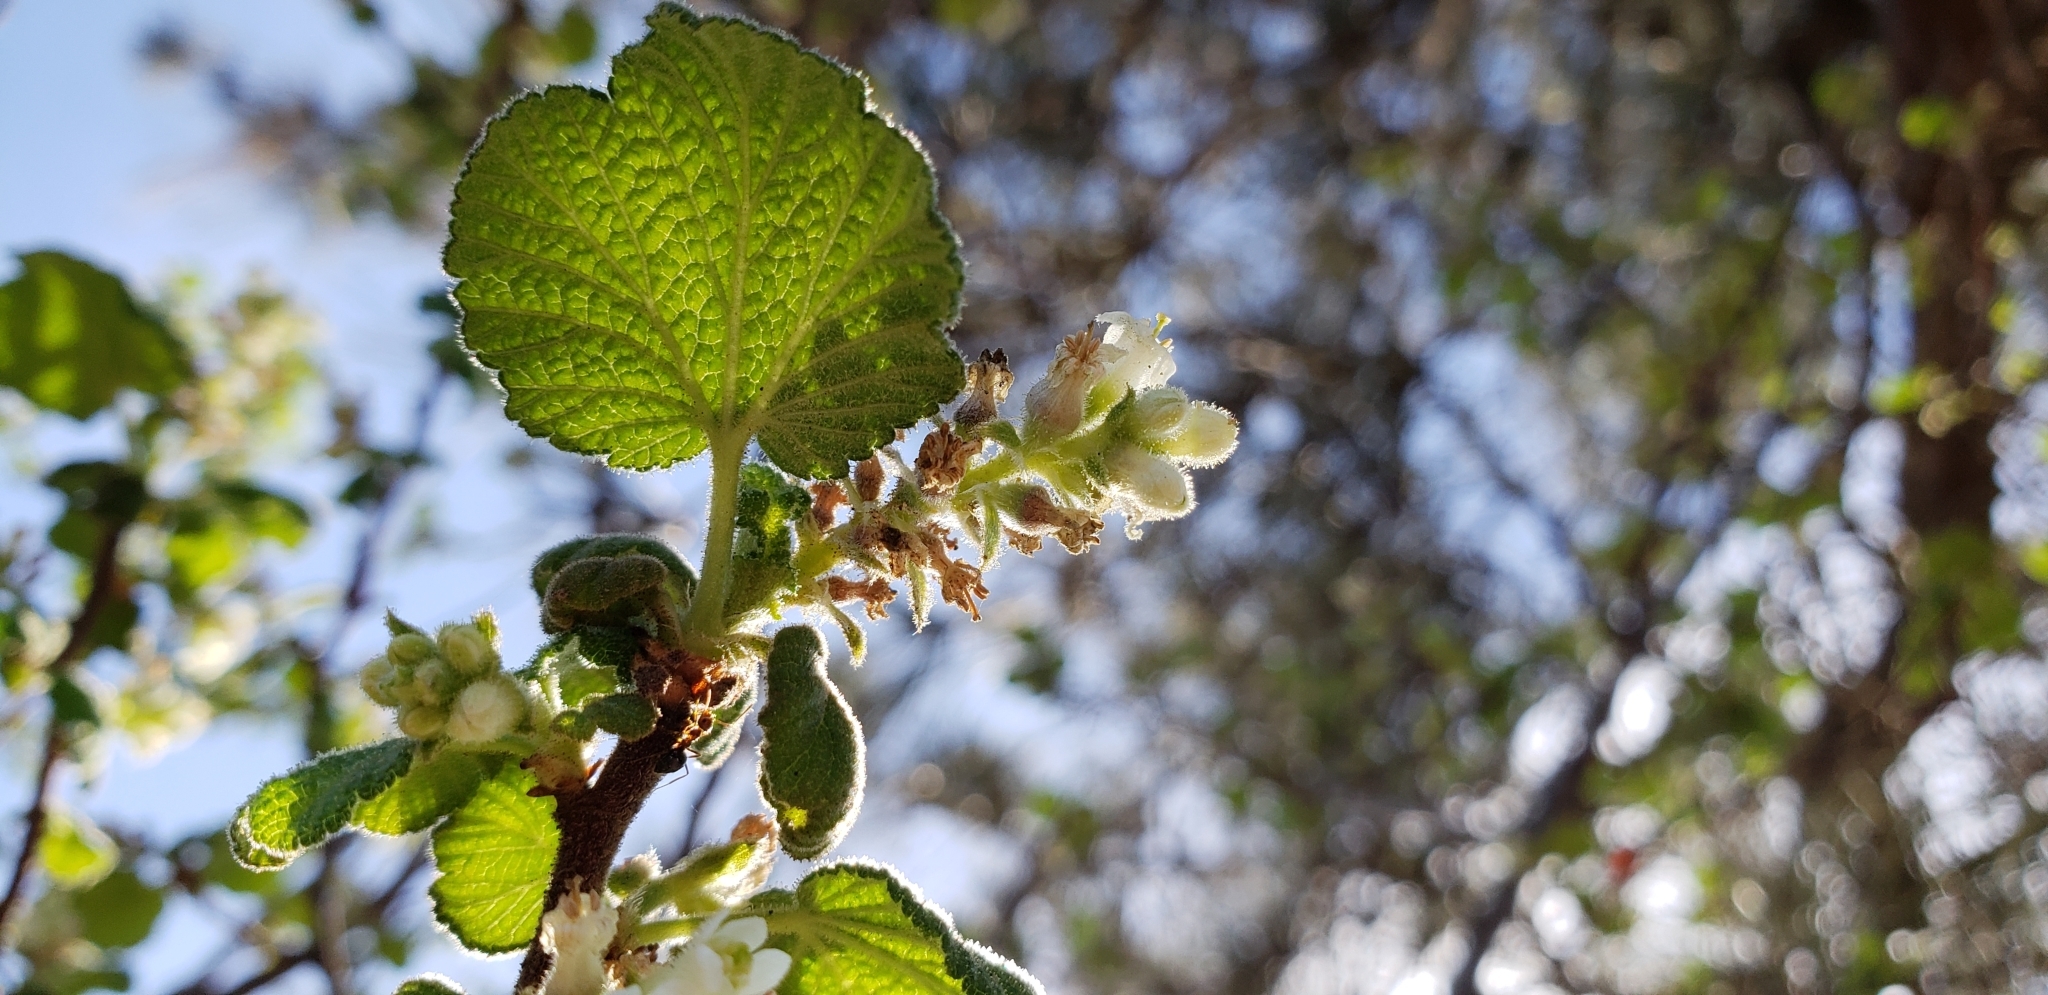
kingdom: Plantae
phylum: Tracheophyta
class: Magnoliopsida
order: Saxifragales
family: Grossulariaceae
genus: Ribes
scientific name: Ribes indecorum
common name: White-flower currant
